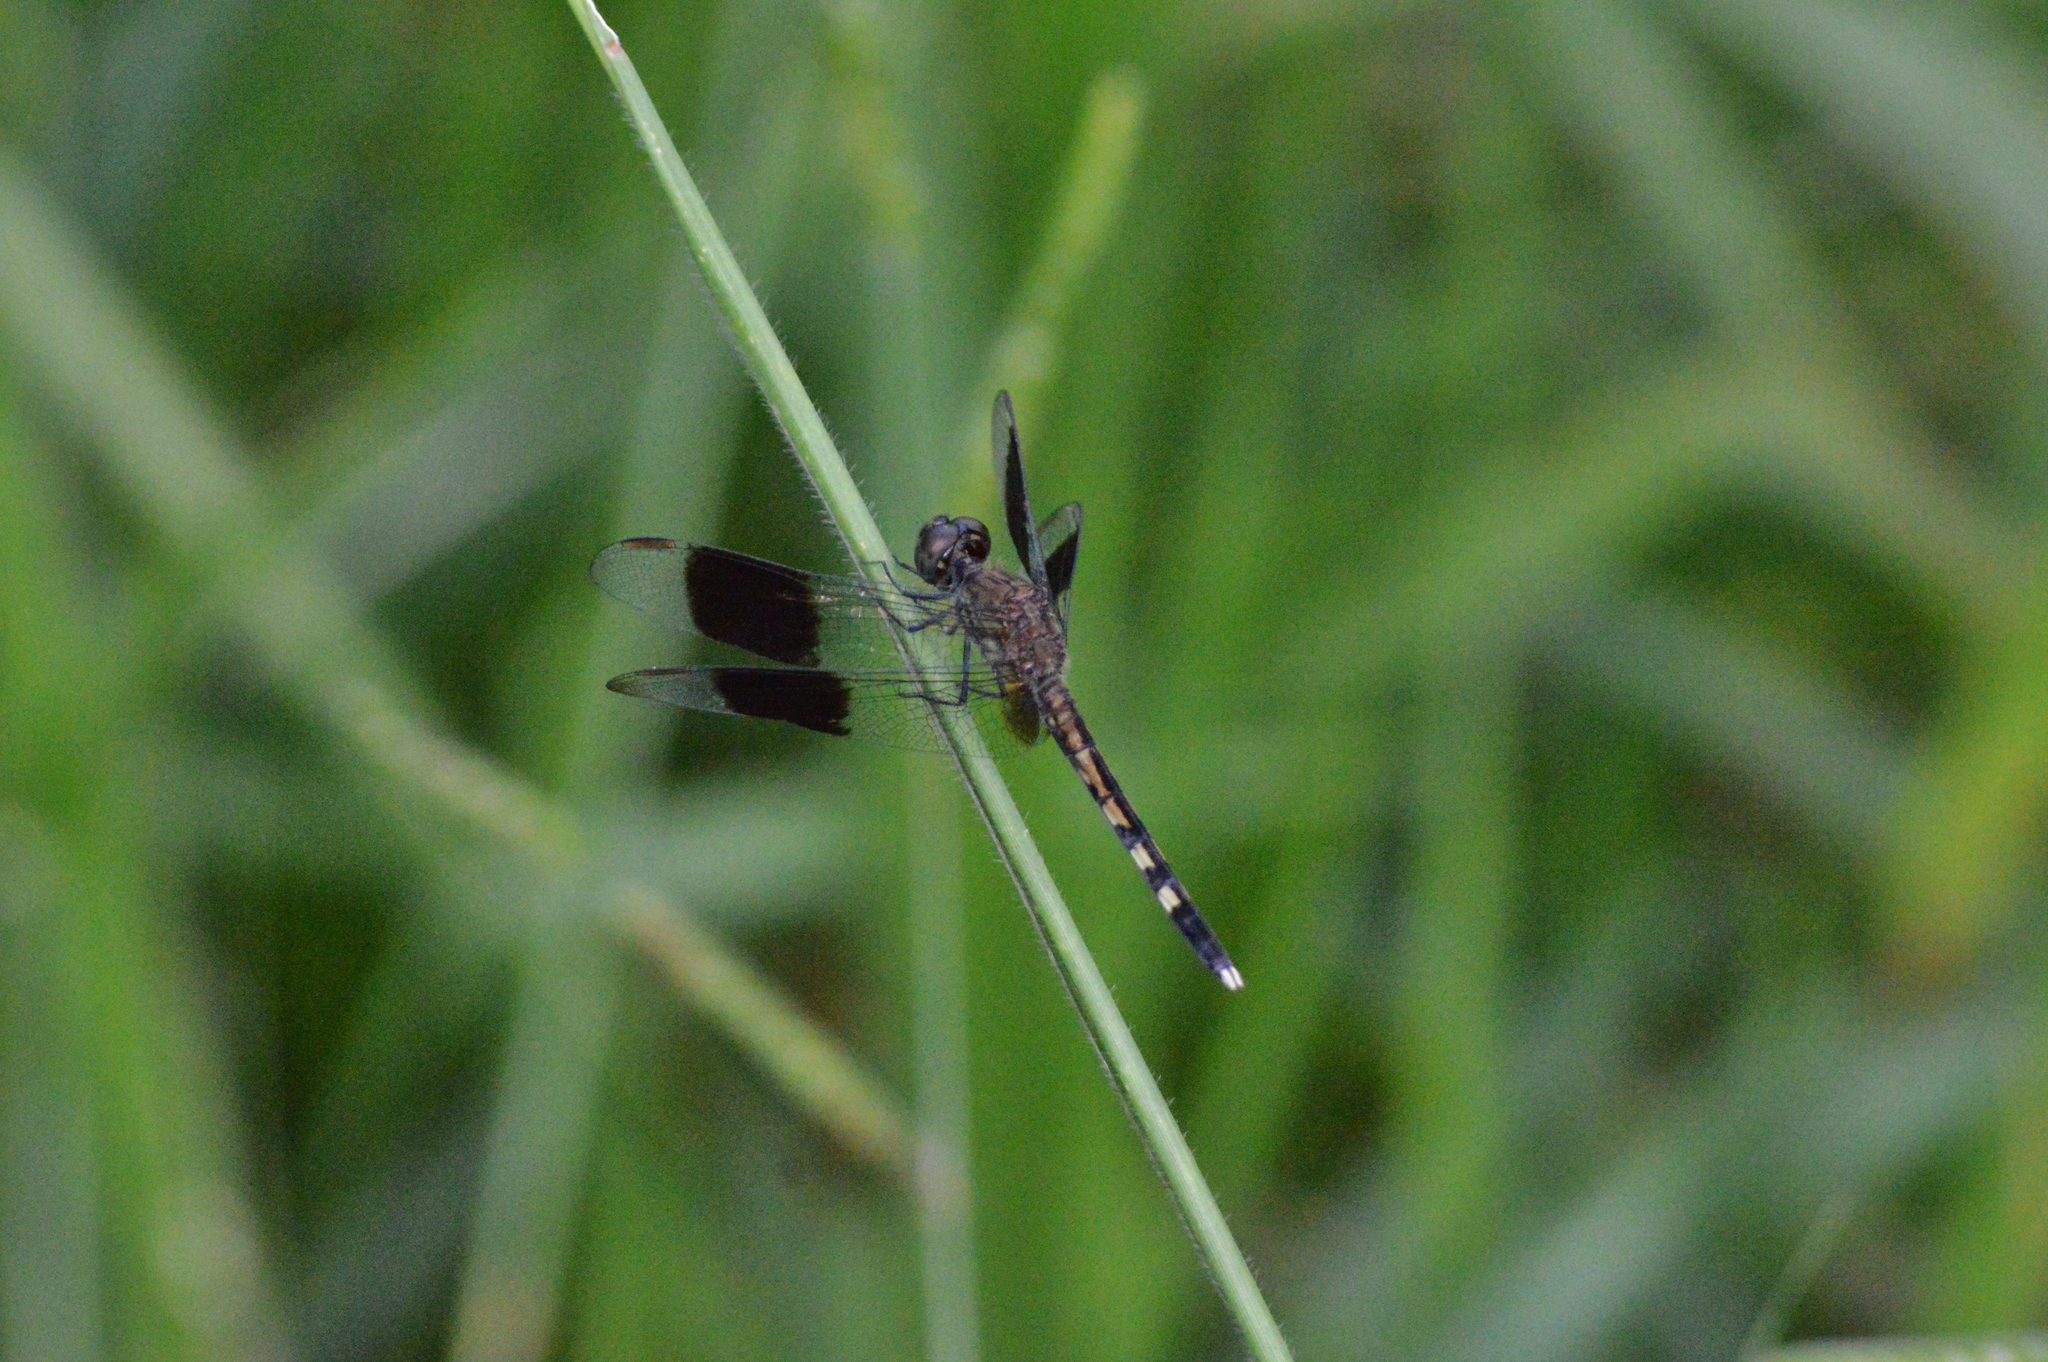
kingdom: Animalia
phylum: Arthropoda
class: Insecta
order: Odonata
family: Libellulidae
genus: Erythrodiplax
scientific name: Erythrodiplax umbrata
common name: Band-winged dragonlet
